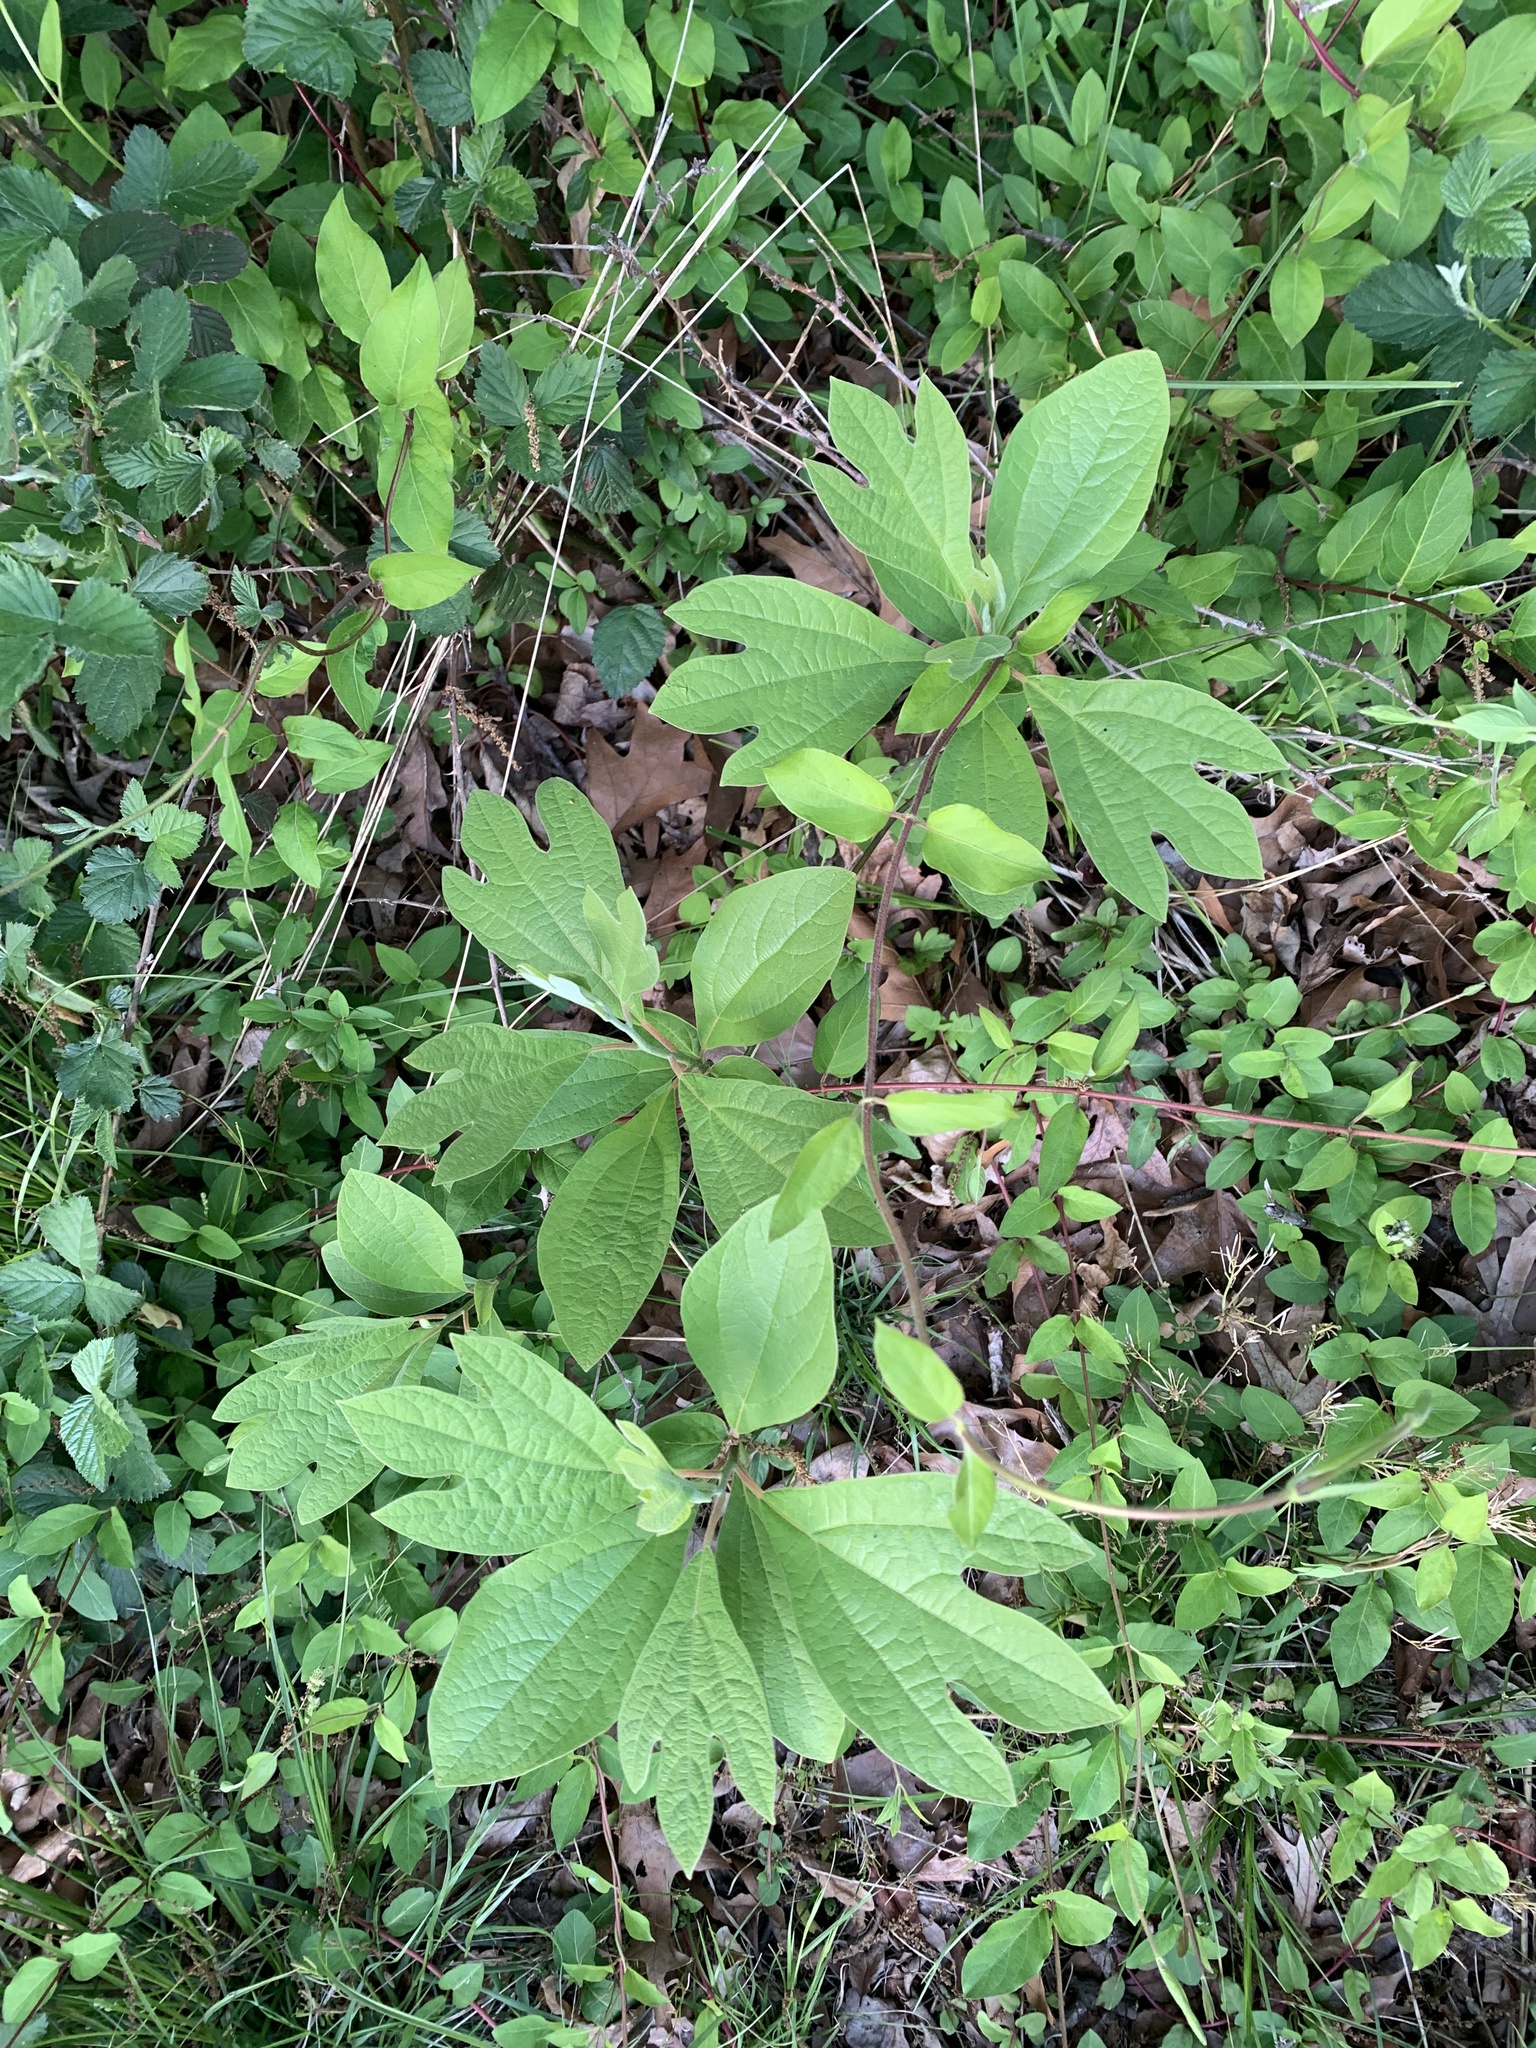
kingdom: Plantae
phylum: Tracheophyta
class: Magnoliopsida
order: Laurales
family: Lauraceae
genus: Sassafras
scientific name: Sassafras albidum
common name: Sassafras
